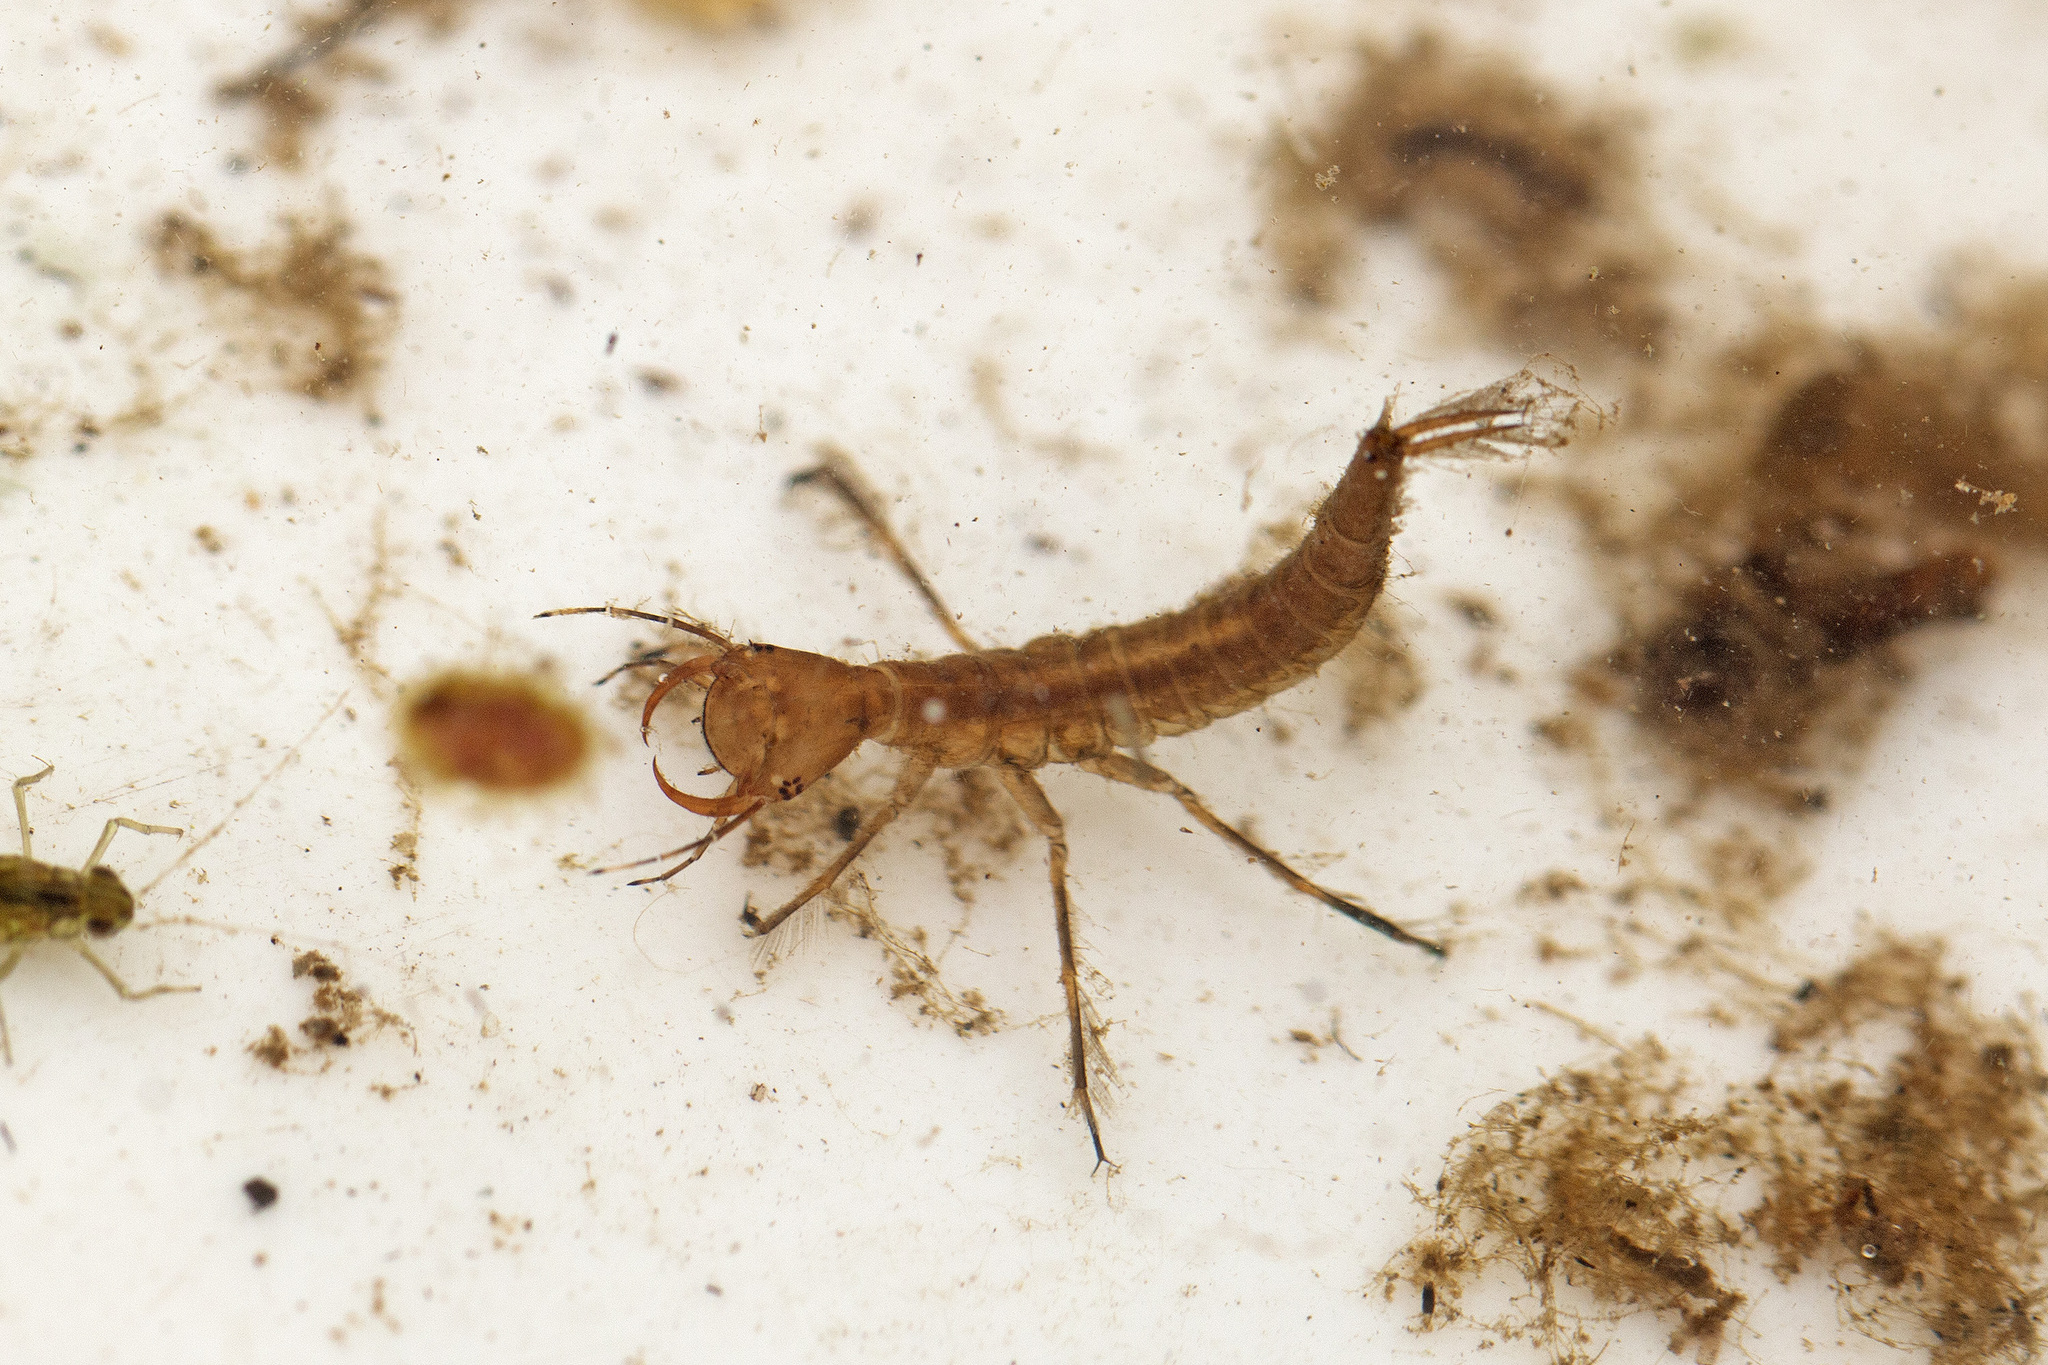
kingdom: Animalia
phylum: Arthropoda
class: Insecta
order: Coleoptera
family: Dytiscidae
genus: Dytiscus
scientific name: Dytiscus
